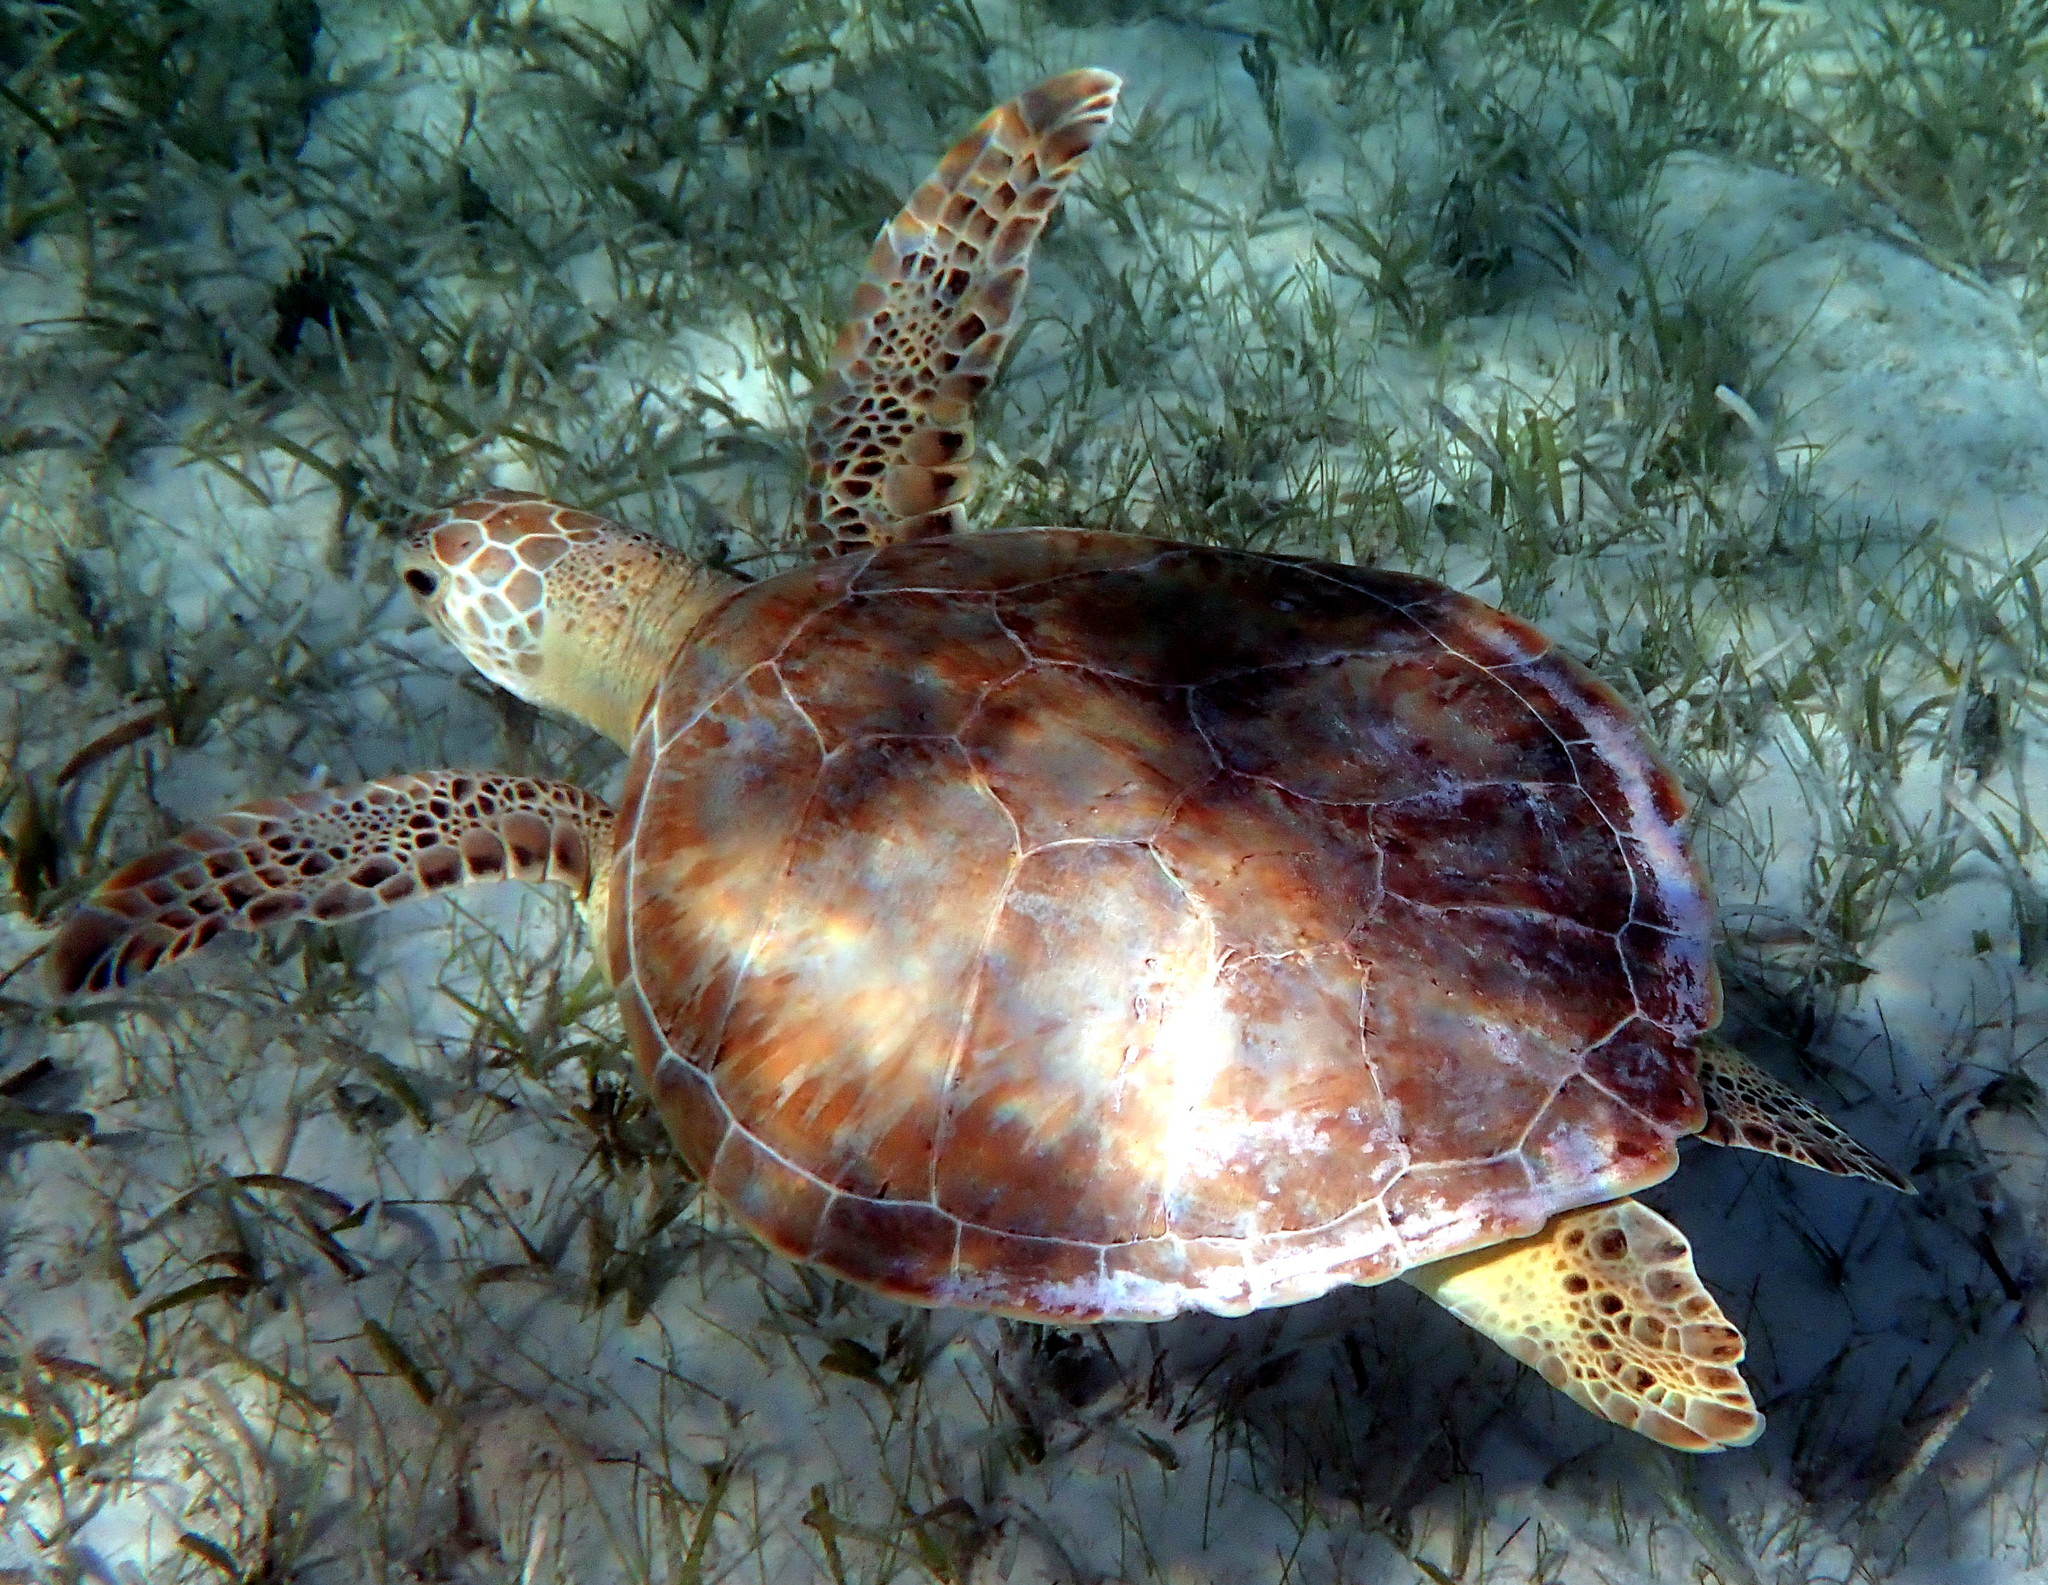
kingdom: Animalia
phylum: Chordata
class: Testudines
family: Cheloniidae
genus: Chelonia
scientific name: Chelonia mydas
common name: Green turtle
